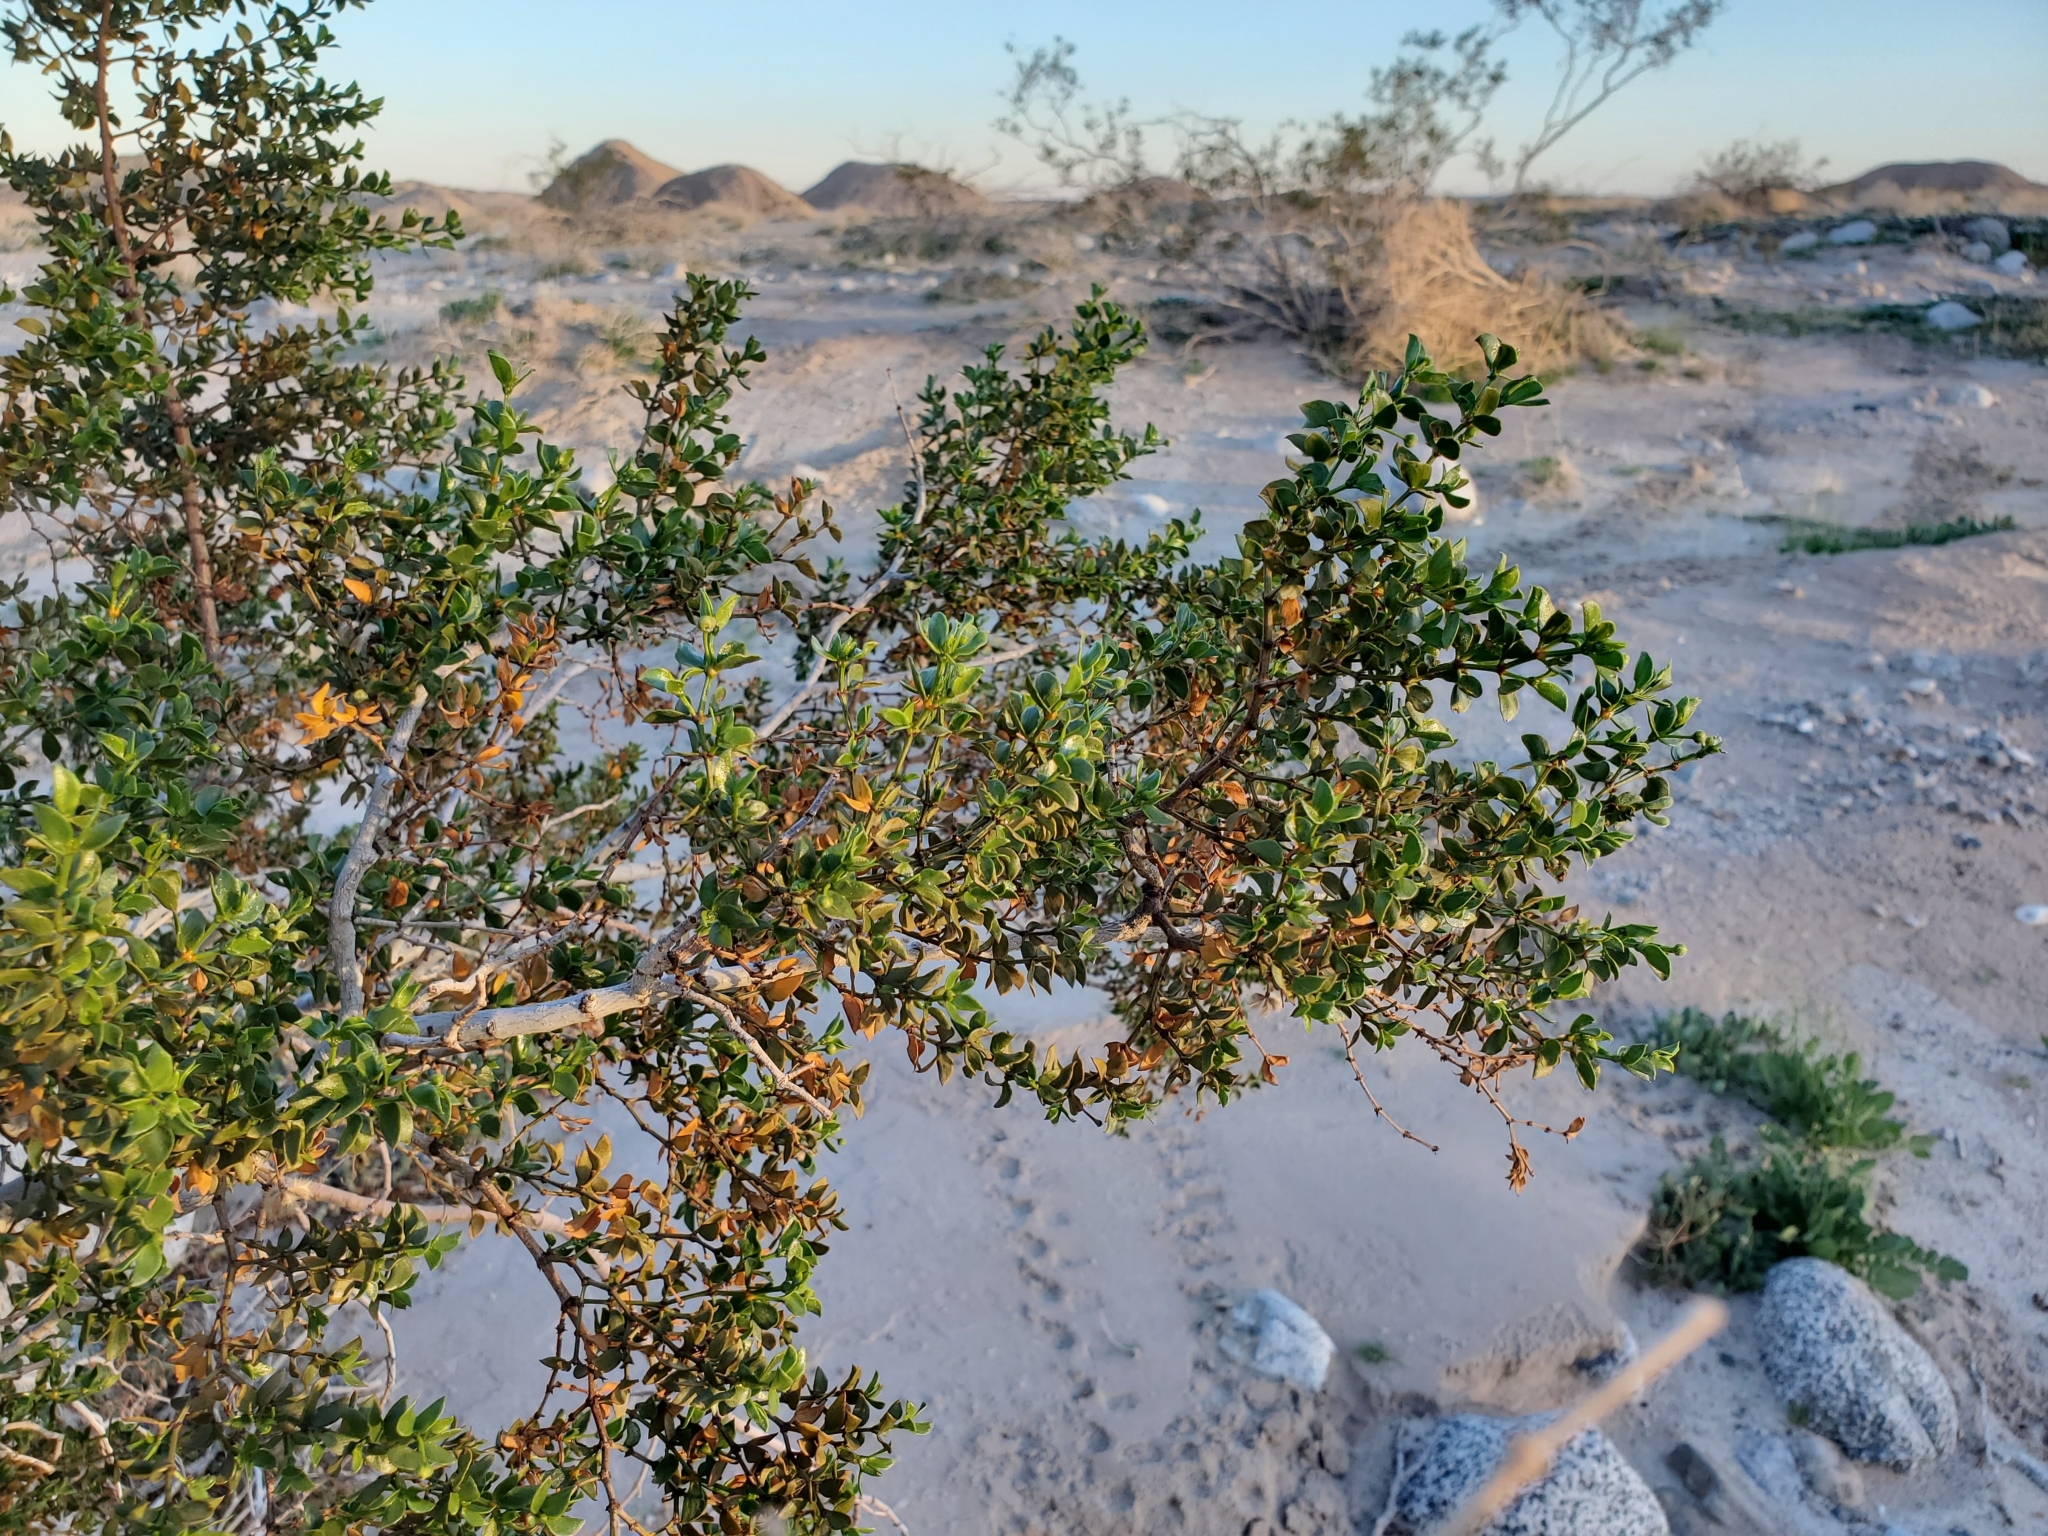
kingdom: Plantae
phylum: Tracheophyta
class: Magnoliopsida
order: Zygophyllales
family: Zygophyllaceae
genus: Larrea
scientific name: Larrea tridentata
